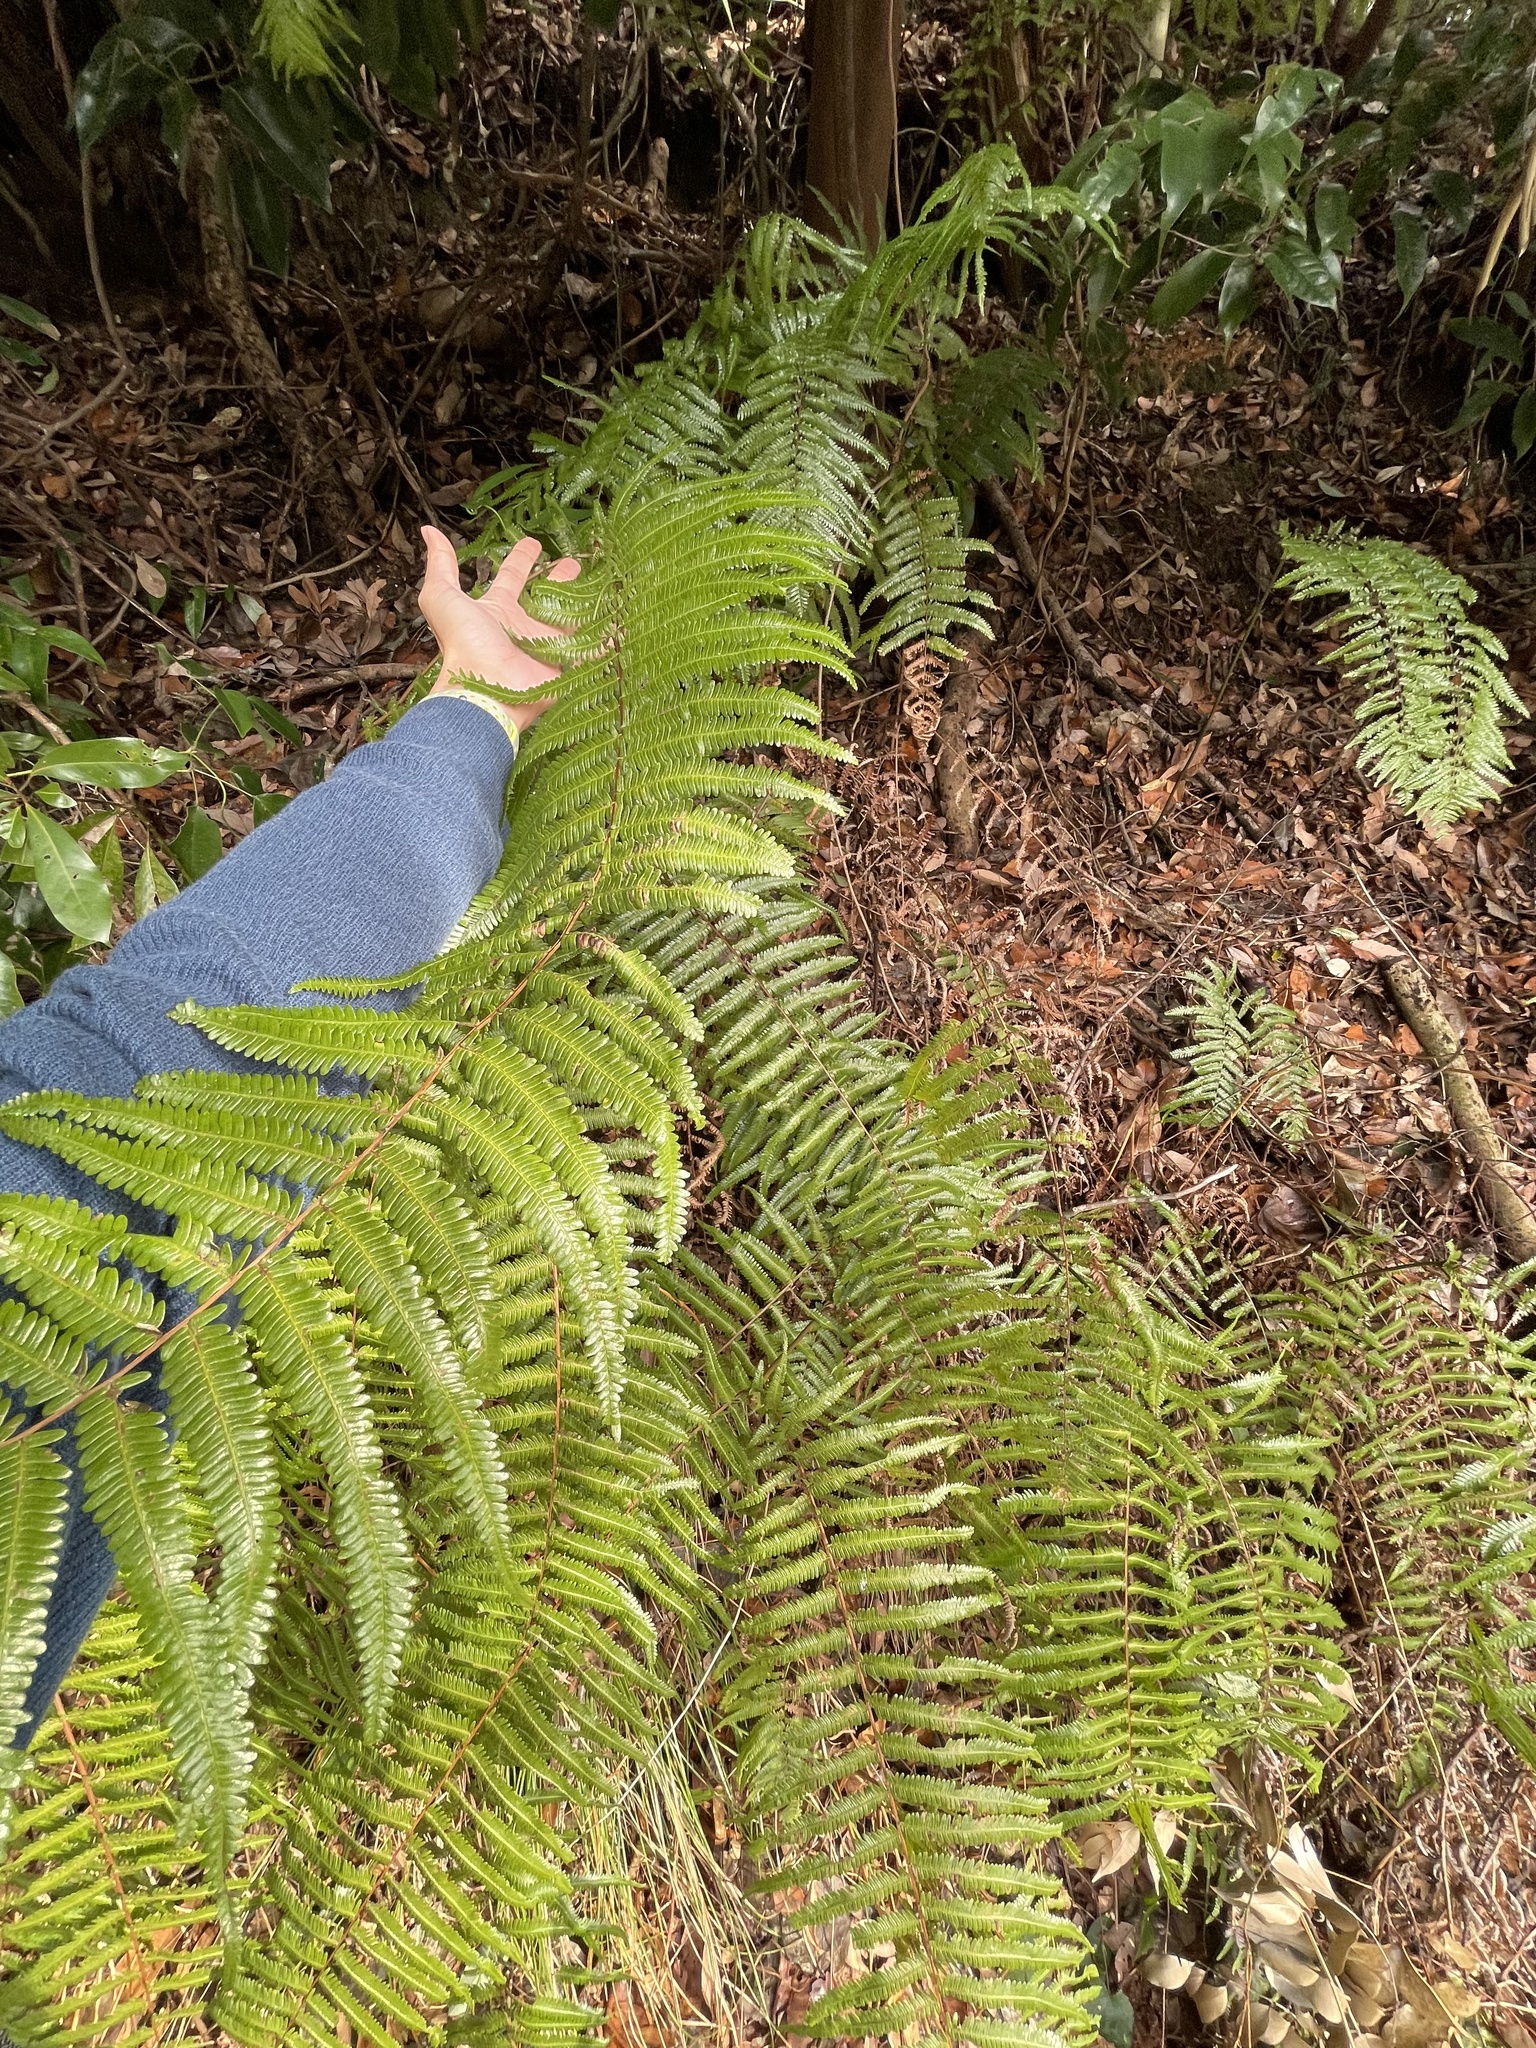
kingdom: Plantae
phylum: Tracheophyta
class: Polypodiopsida
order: Gleicheniales
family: Gleicheniaceae
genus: Diplopterygium
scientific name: Diplopterygium glaucum
